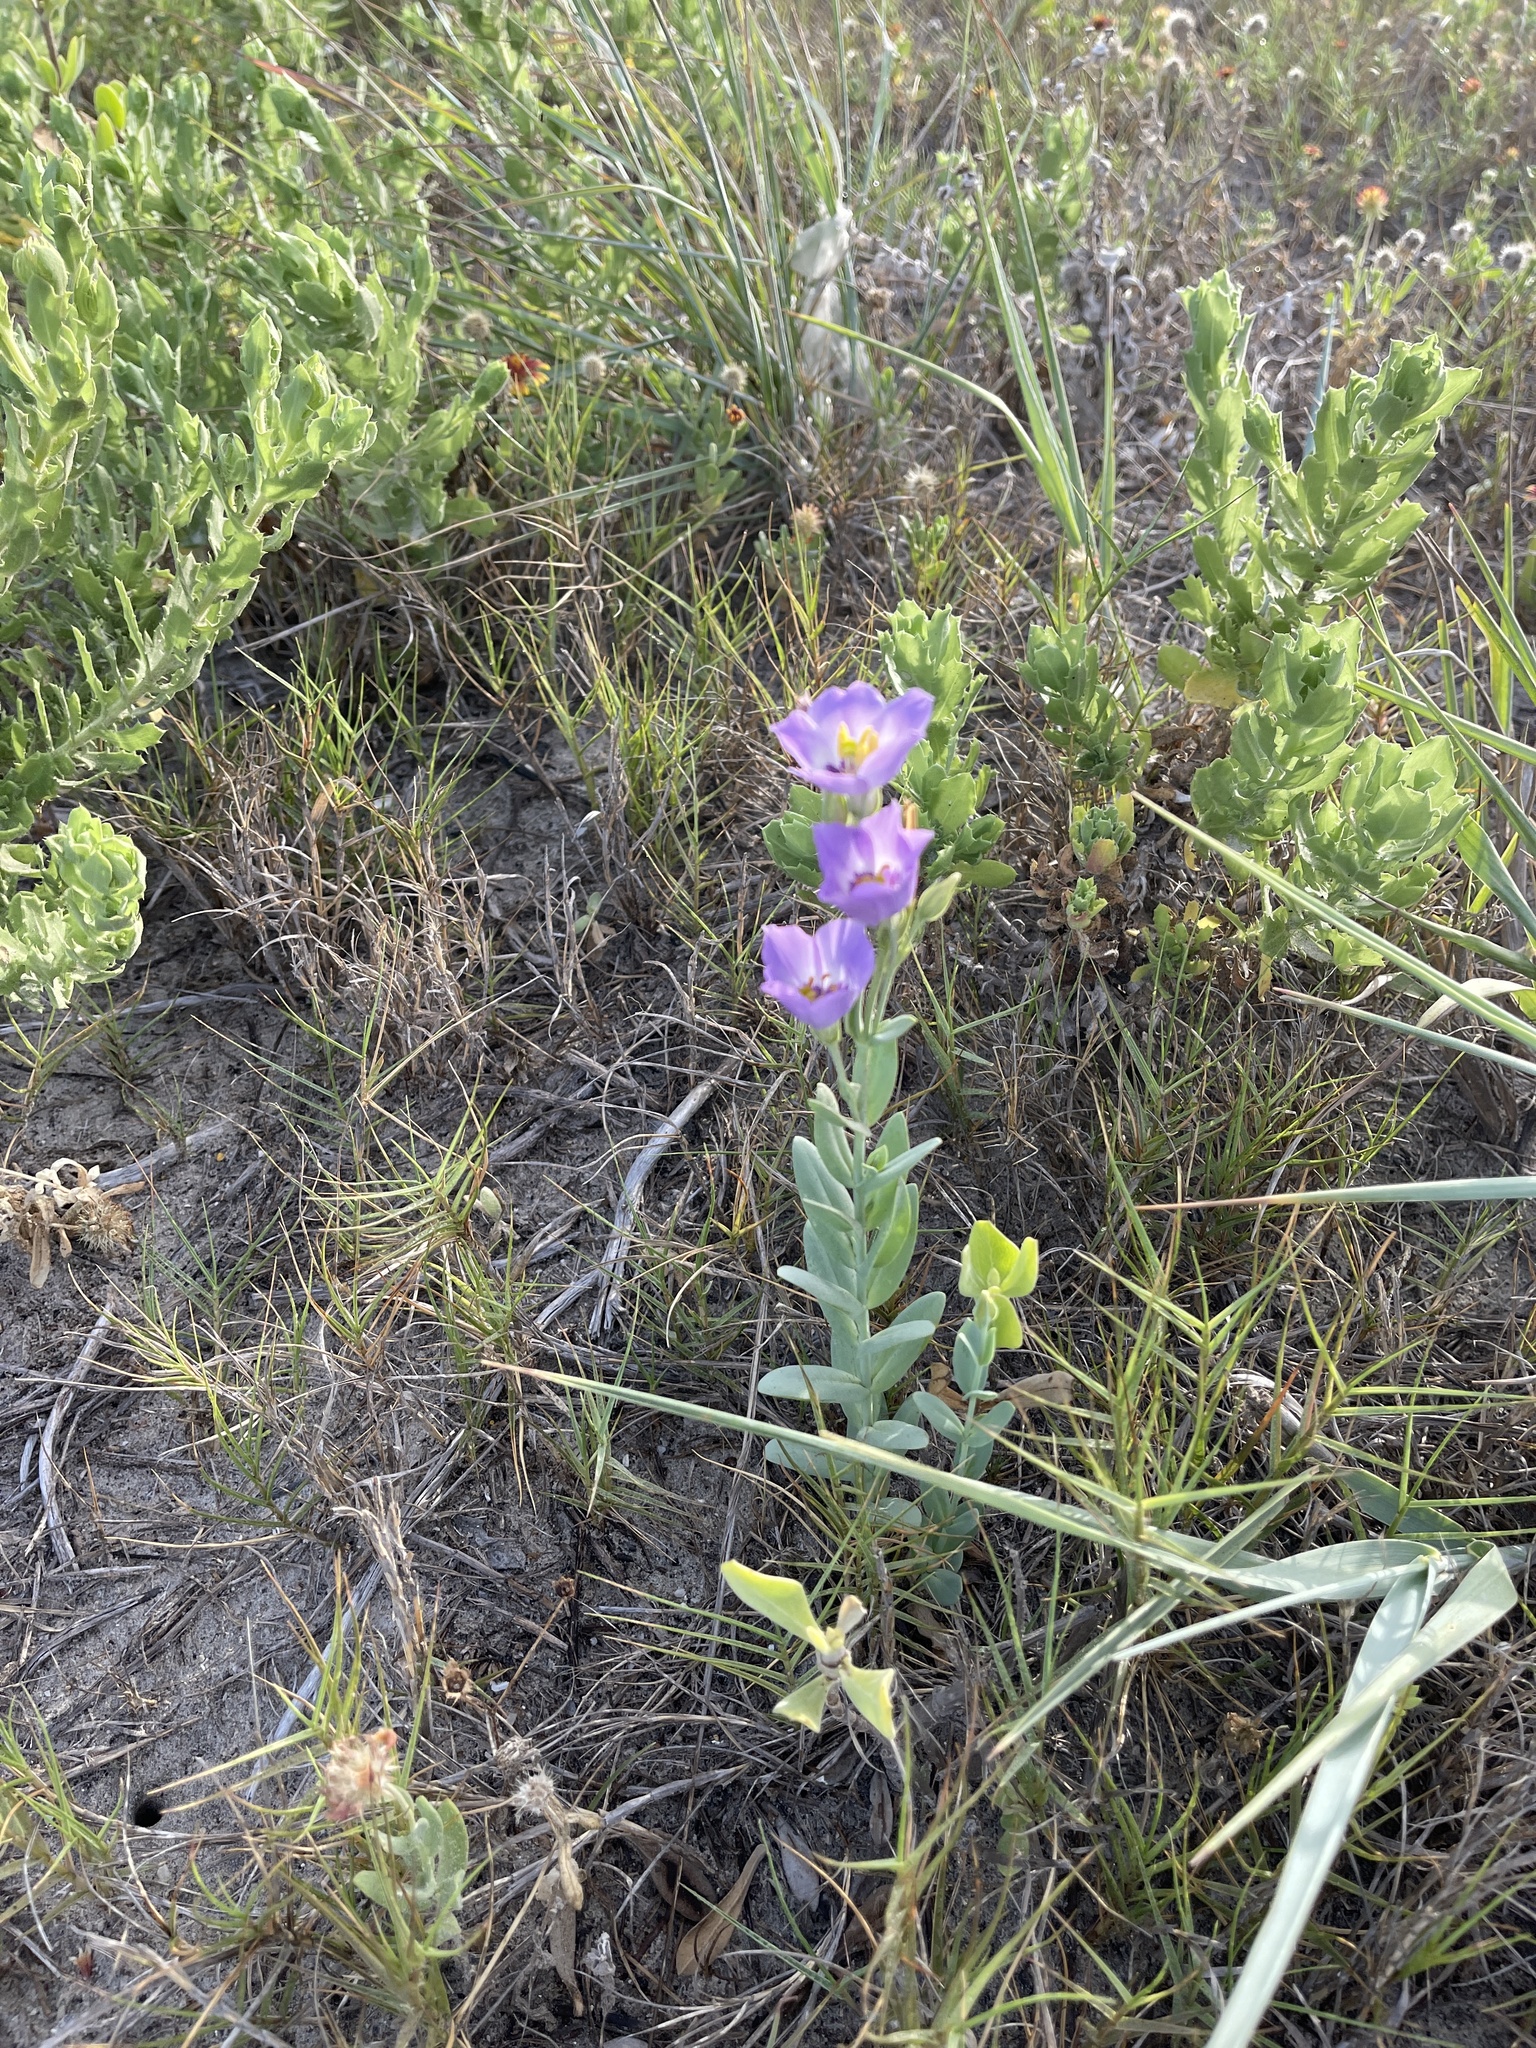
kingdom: Plantae
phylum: Tracheophyta
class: Magnoliopsida
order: Gentianales
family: Gentianaceae
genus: Eustoma
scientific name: Eustoma exaltatum
